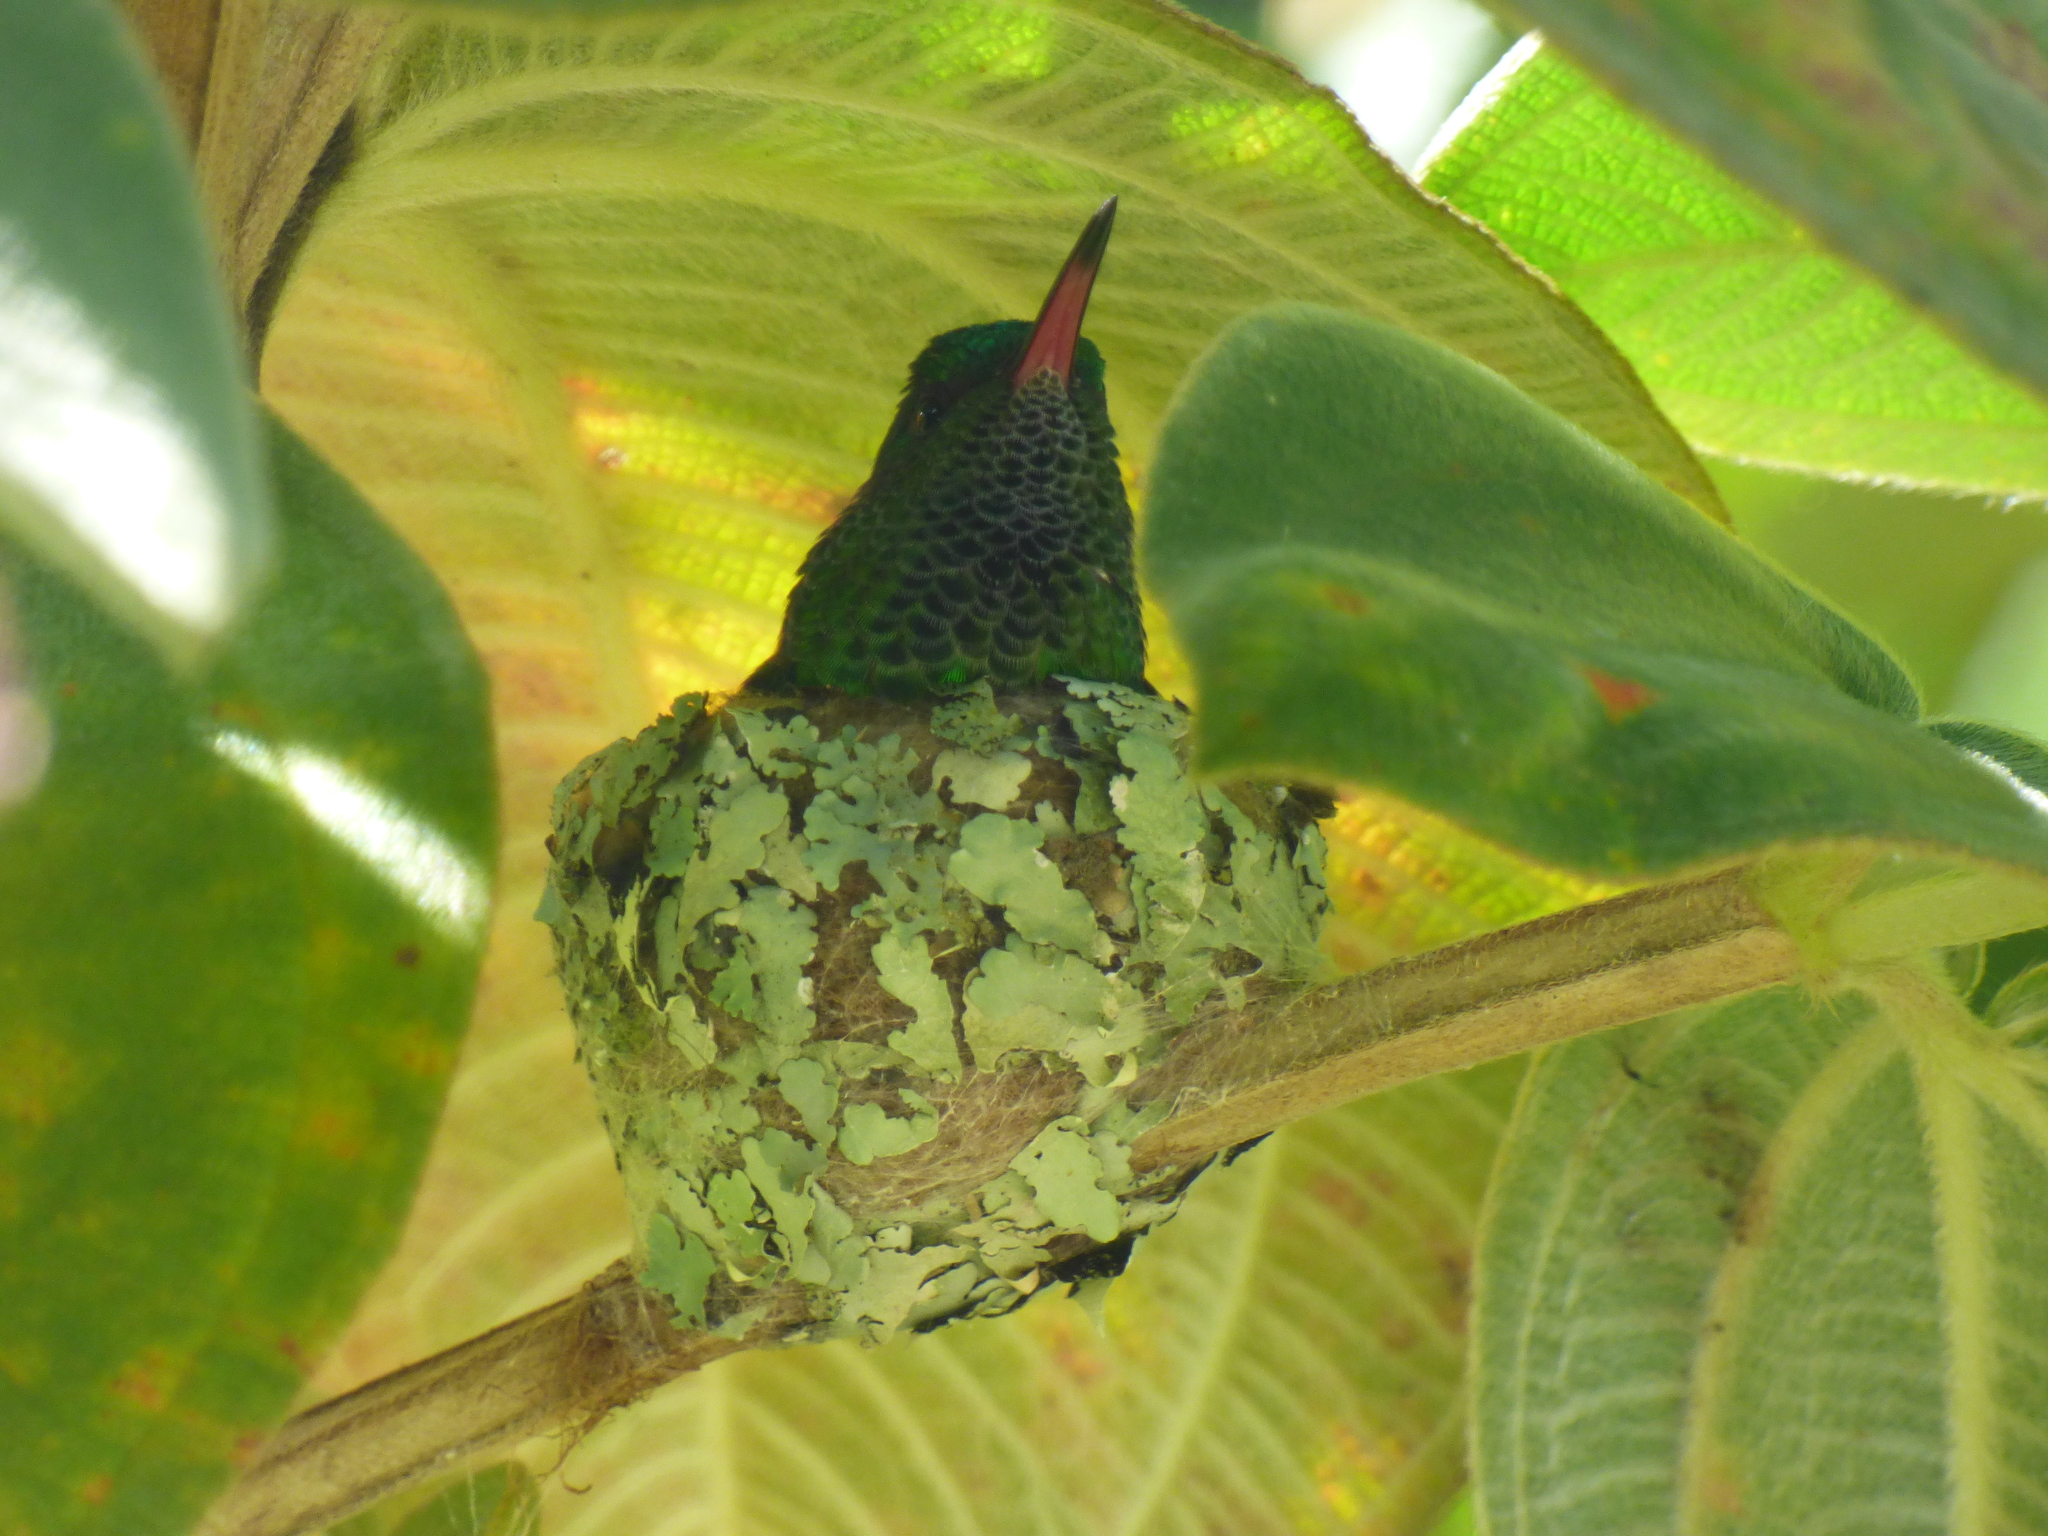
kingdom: Animalia
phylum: Chordata
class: Aves
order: Apodiformes
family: Trochilidae
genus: Amazilia
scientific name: Amazilia tzacatl
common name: Rufous-tailed hummingbird
